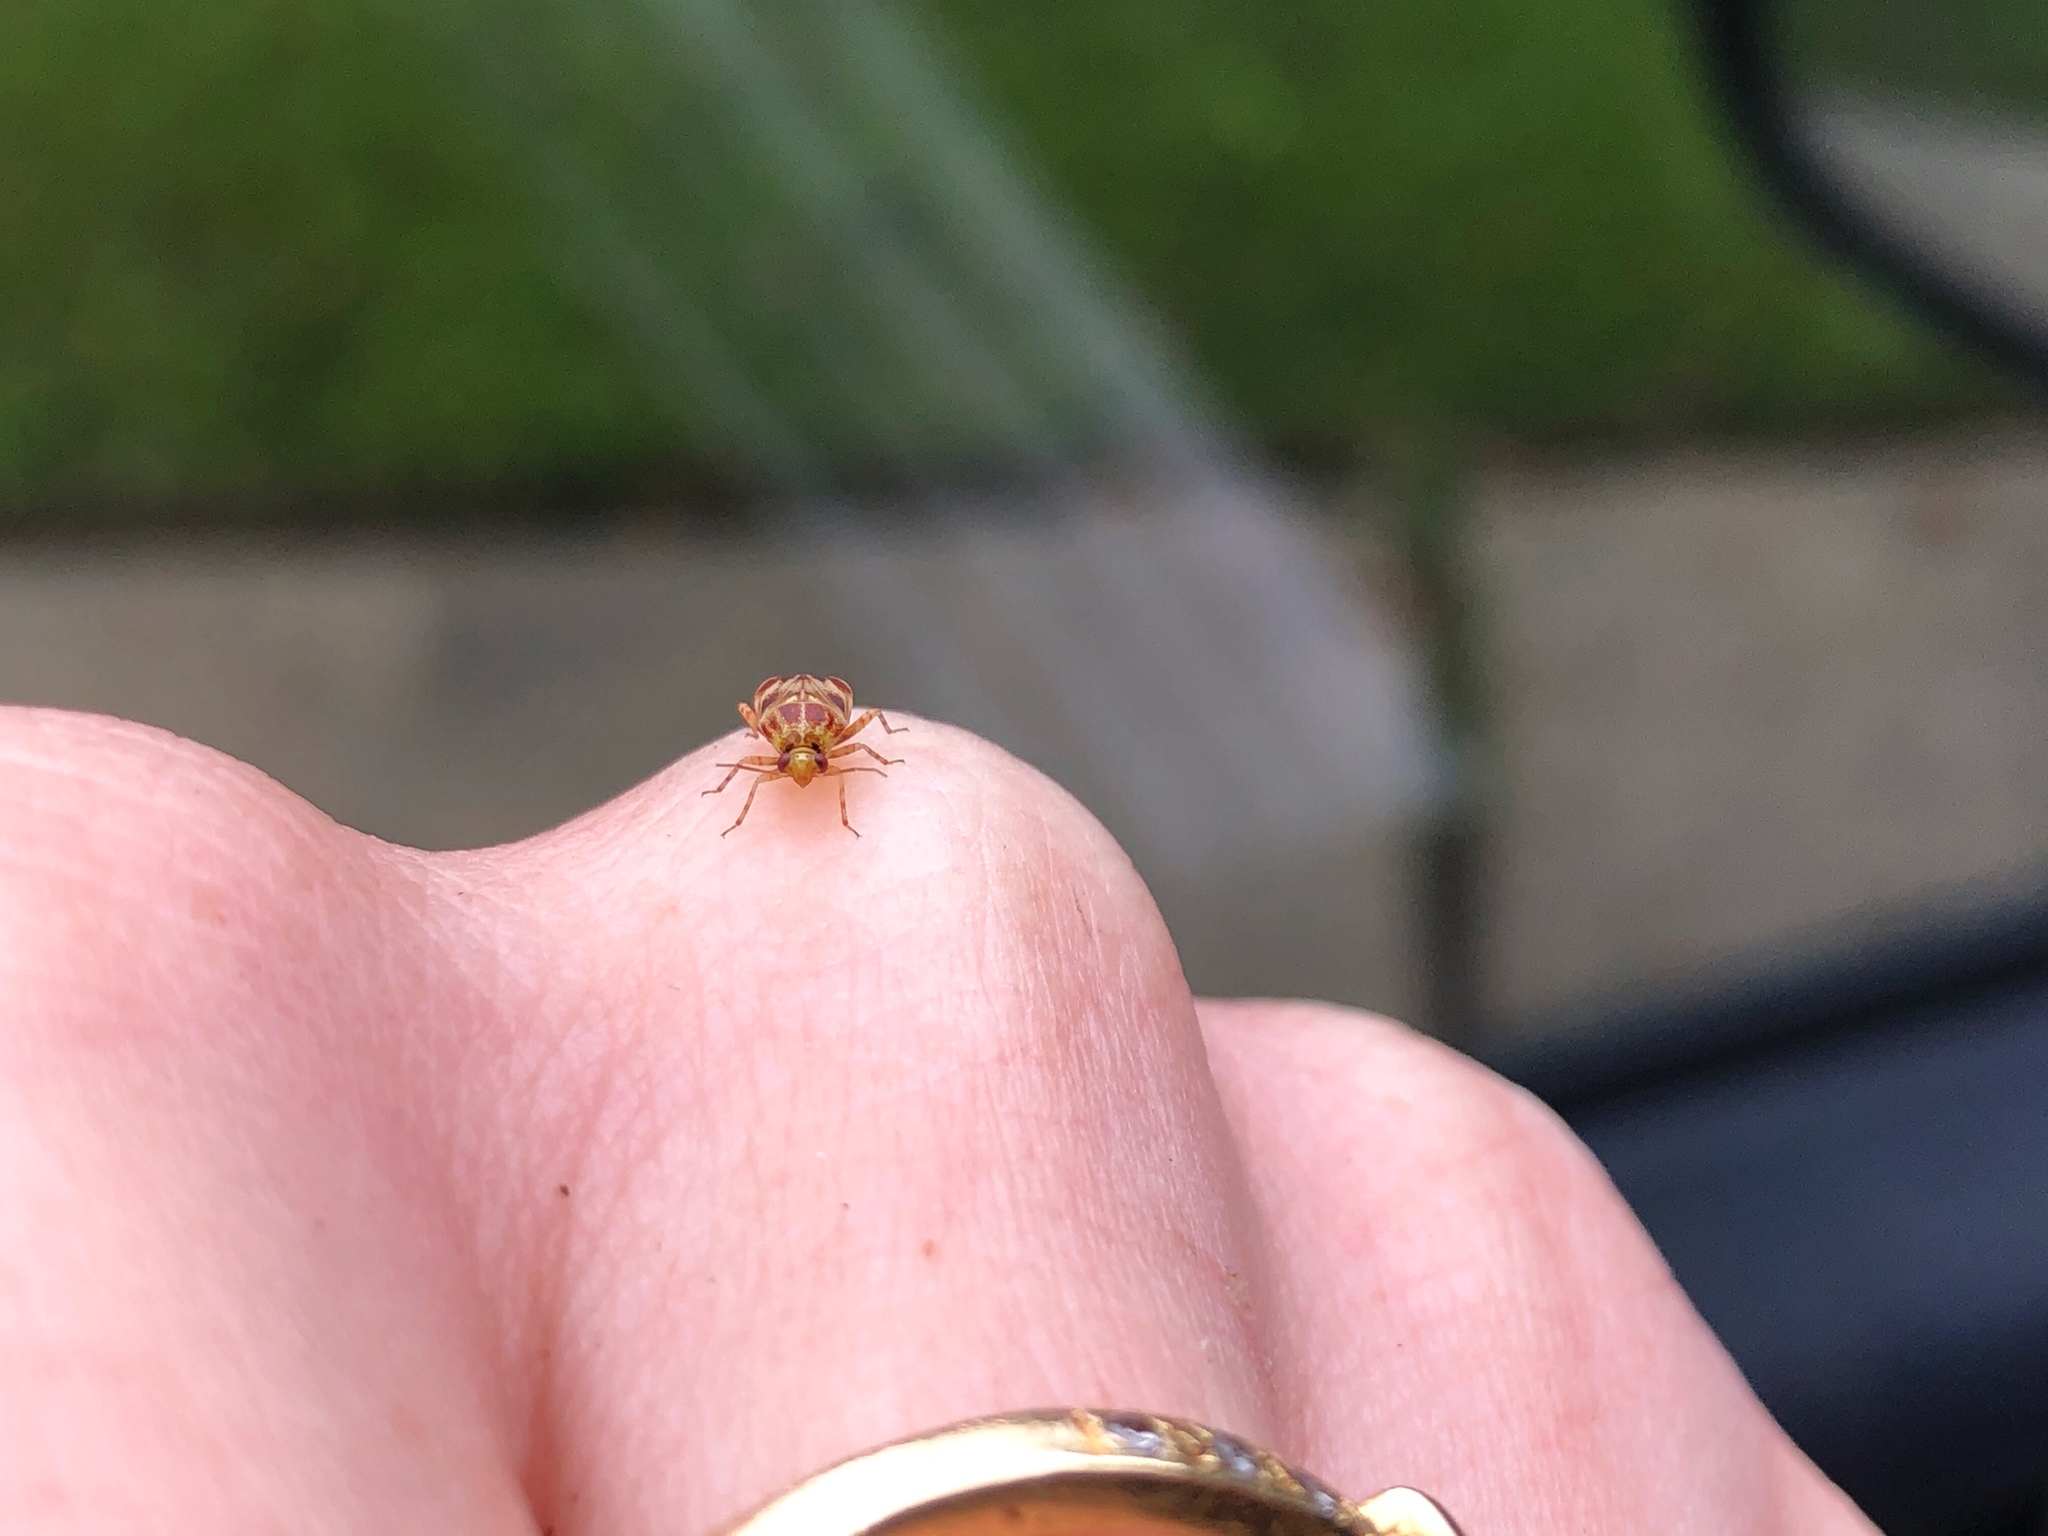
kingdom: Animalia
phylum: Arthropoda
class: Insecta
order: Hemiptera
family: Miridae
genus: Tropidosteptes
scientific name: Tropidosteptes quercicola
